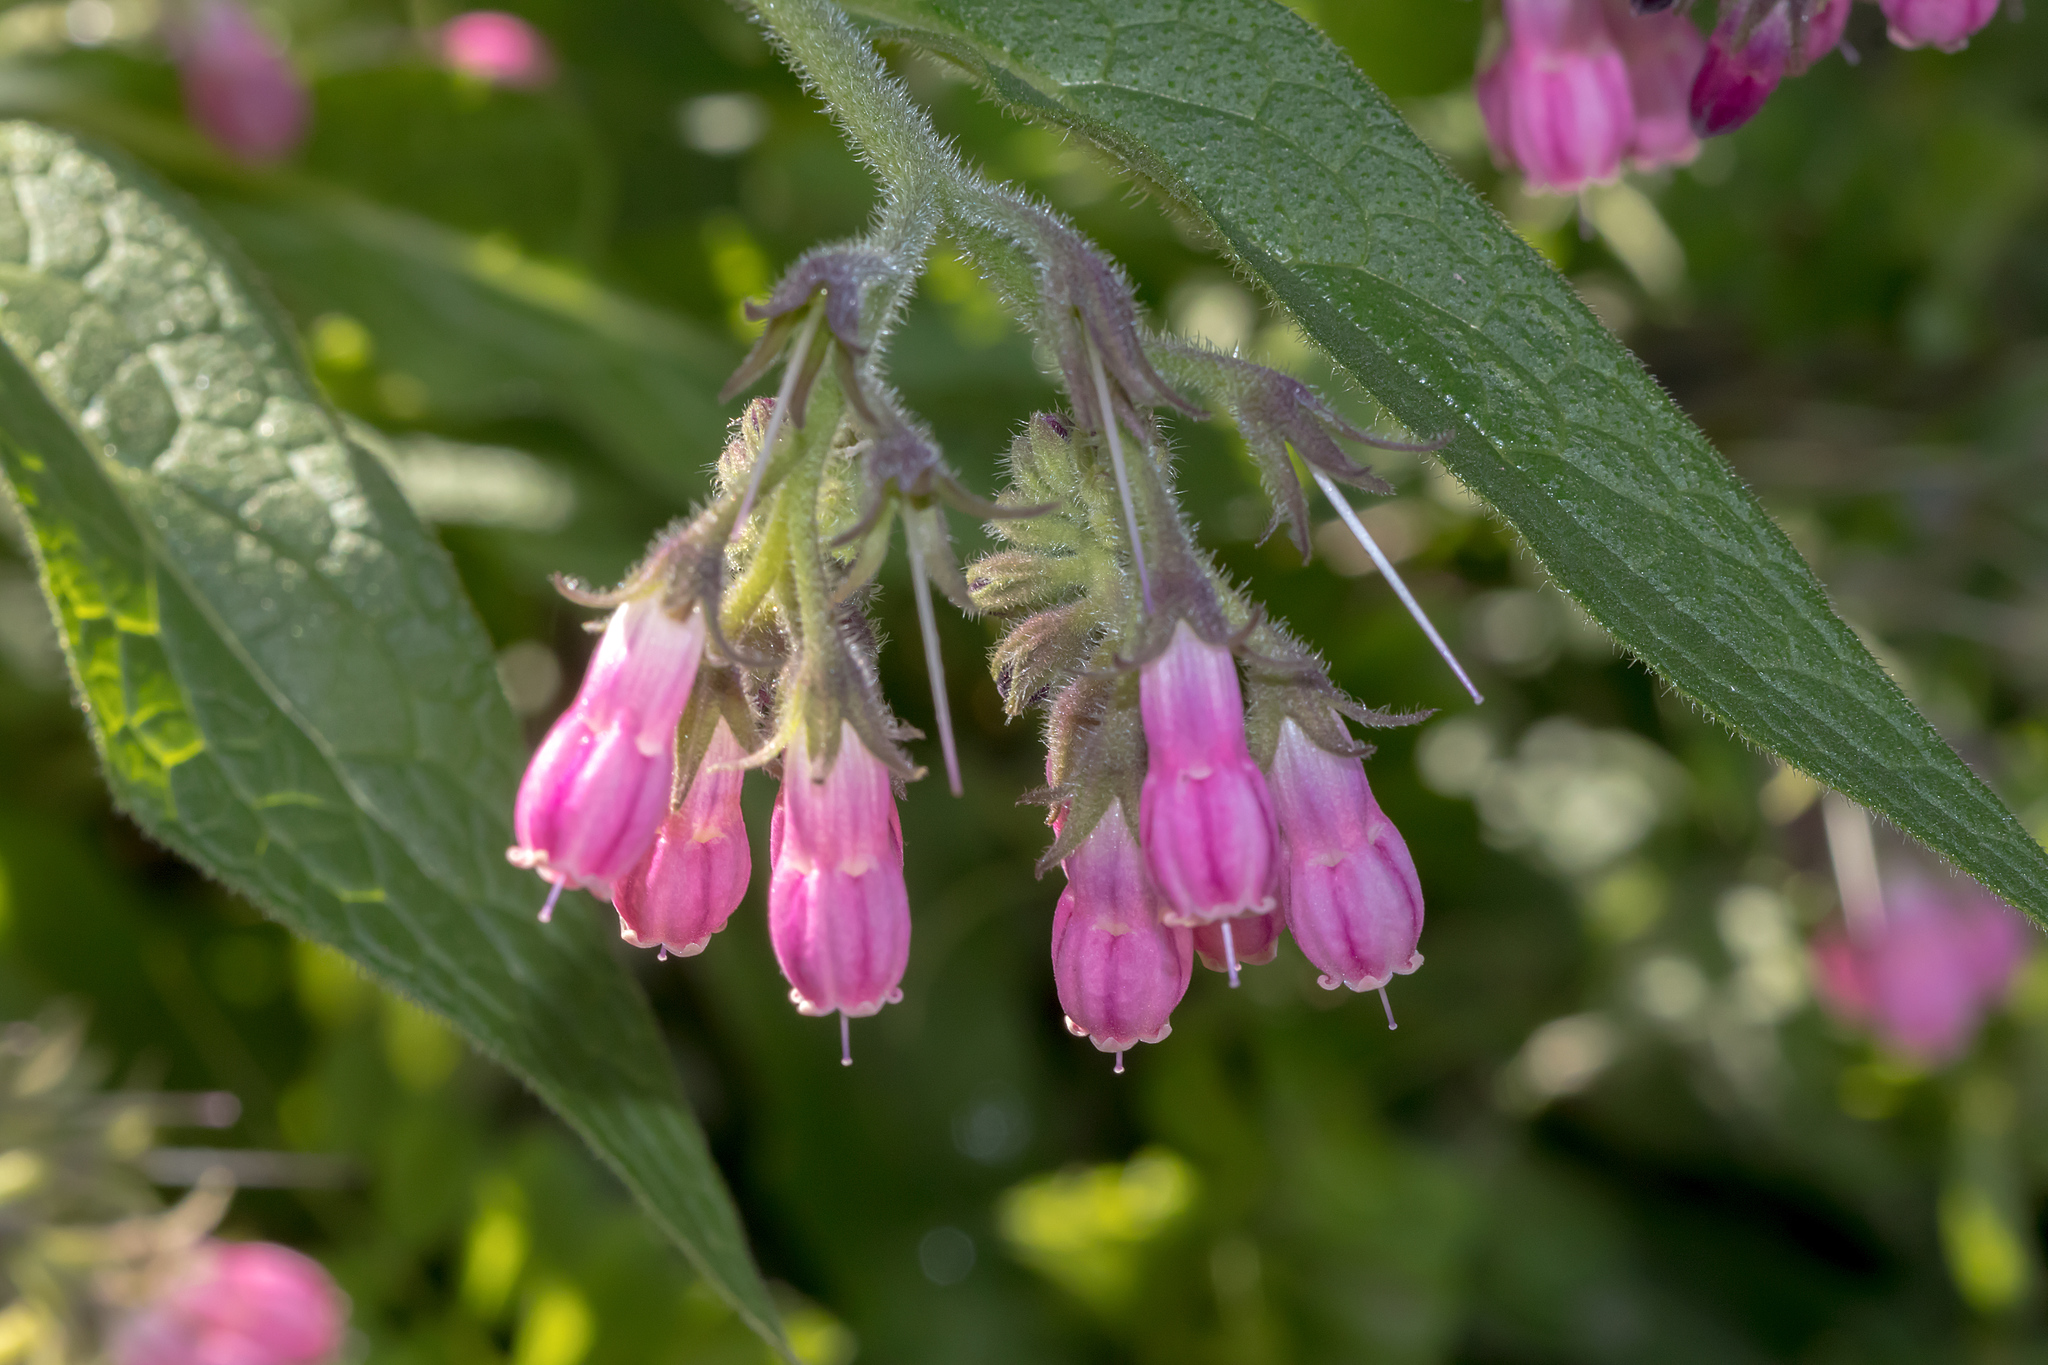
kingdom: Plantae
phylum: Tracheophyta
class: Magnoliopsida
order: Boraginales
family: Boraginaceae
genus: Symphytum
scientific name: Symphytum officinale
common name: Common comfrey
